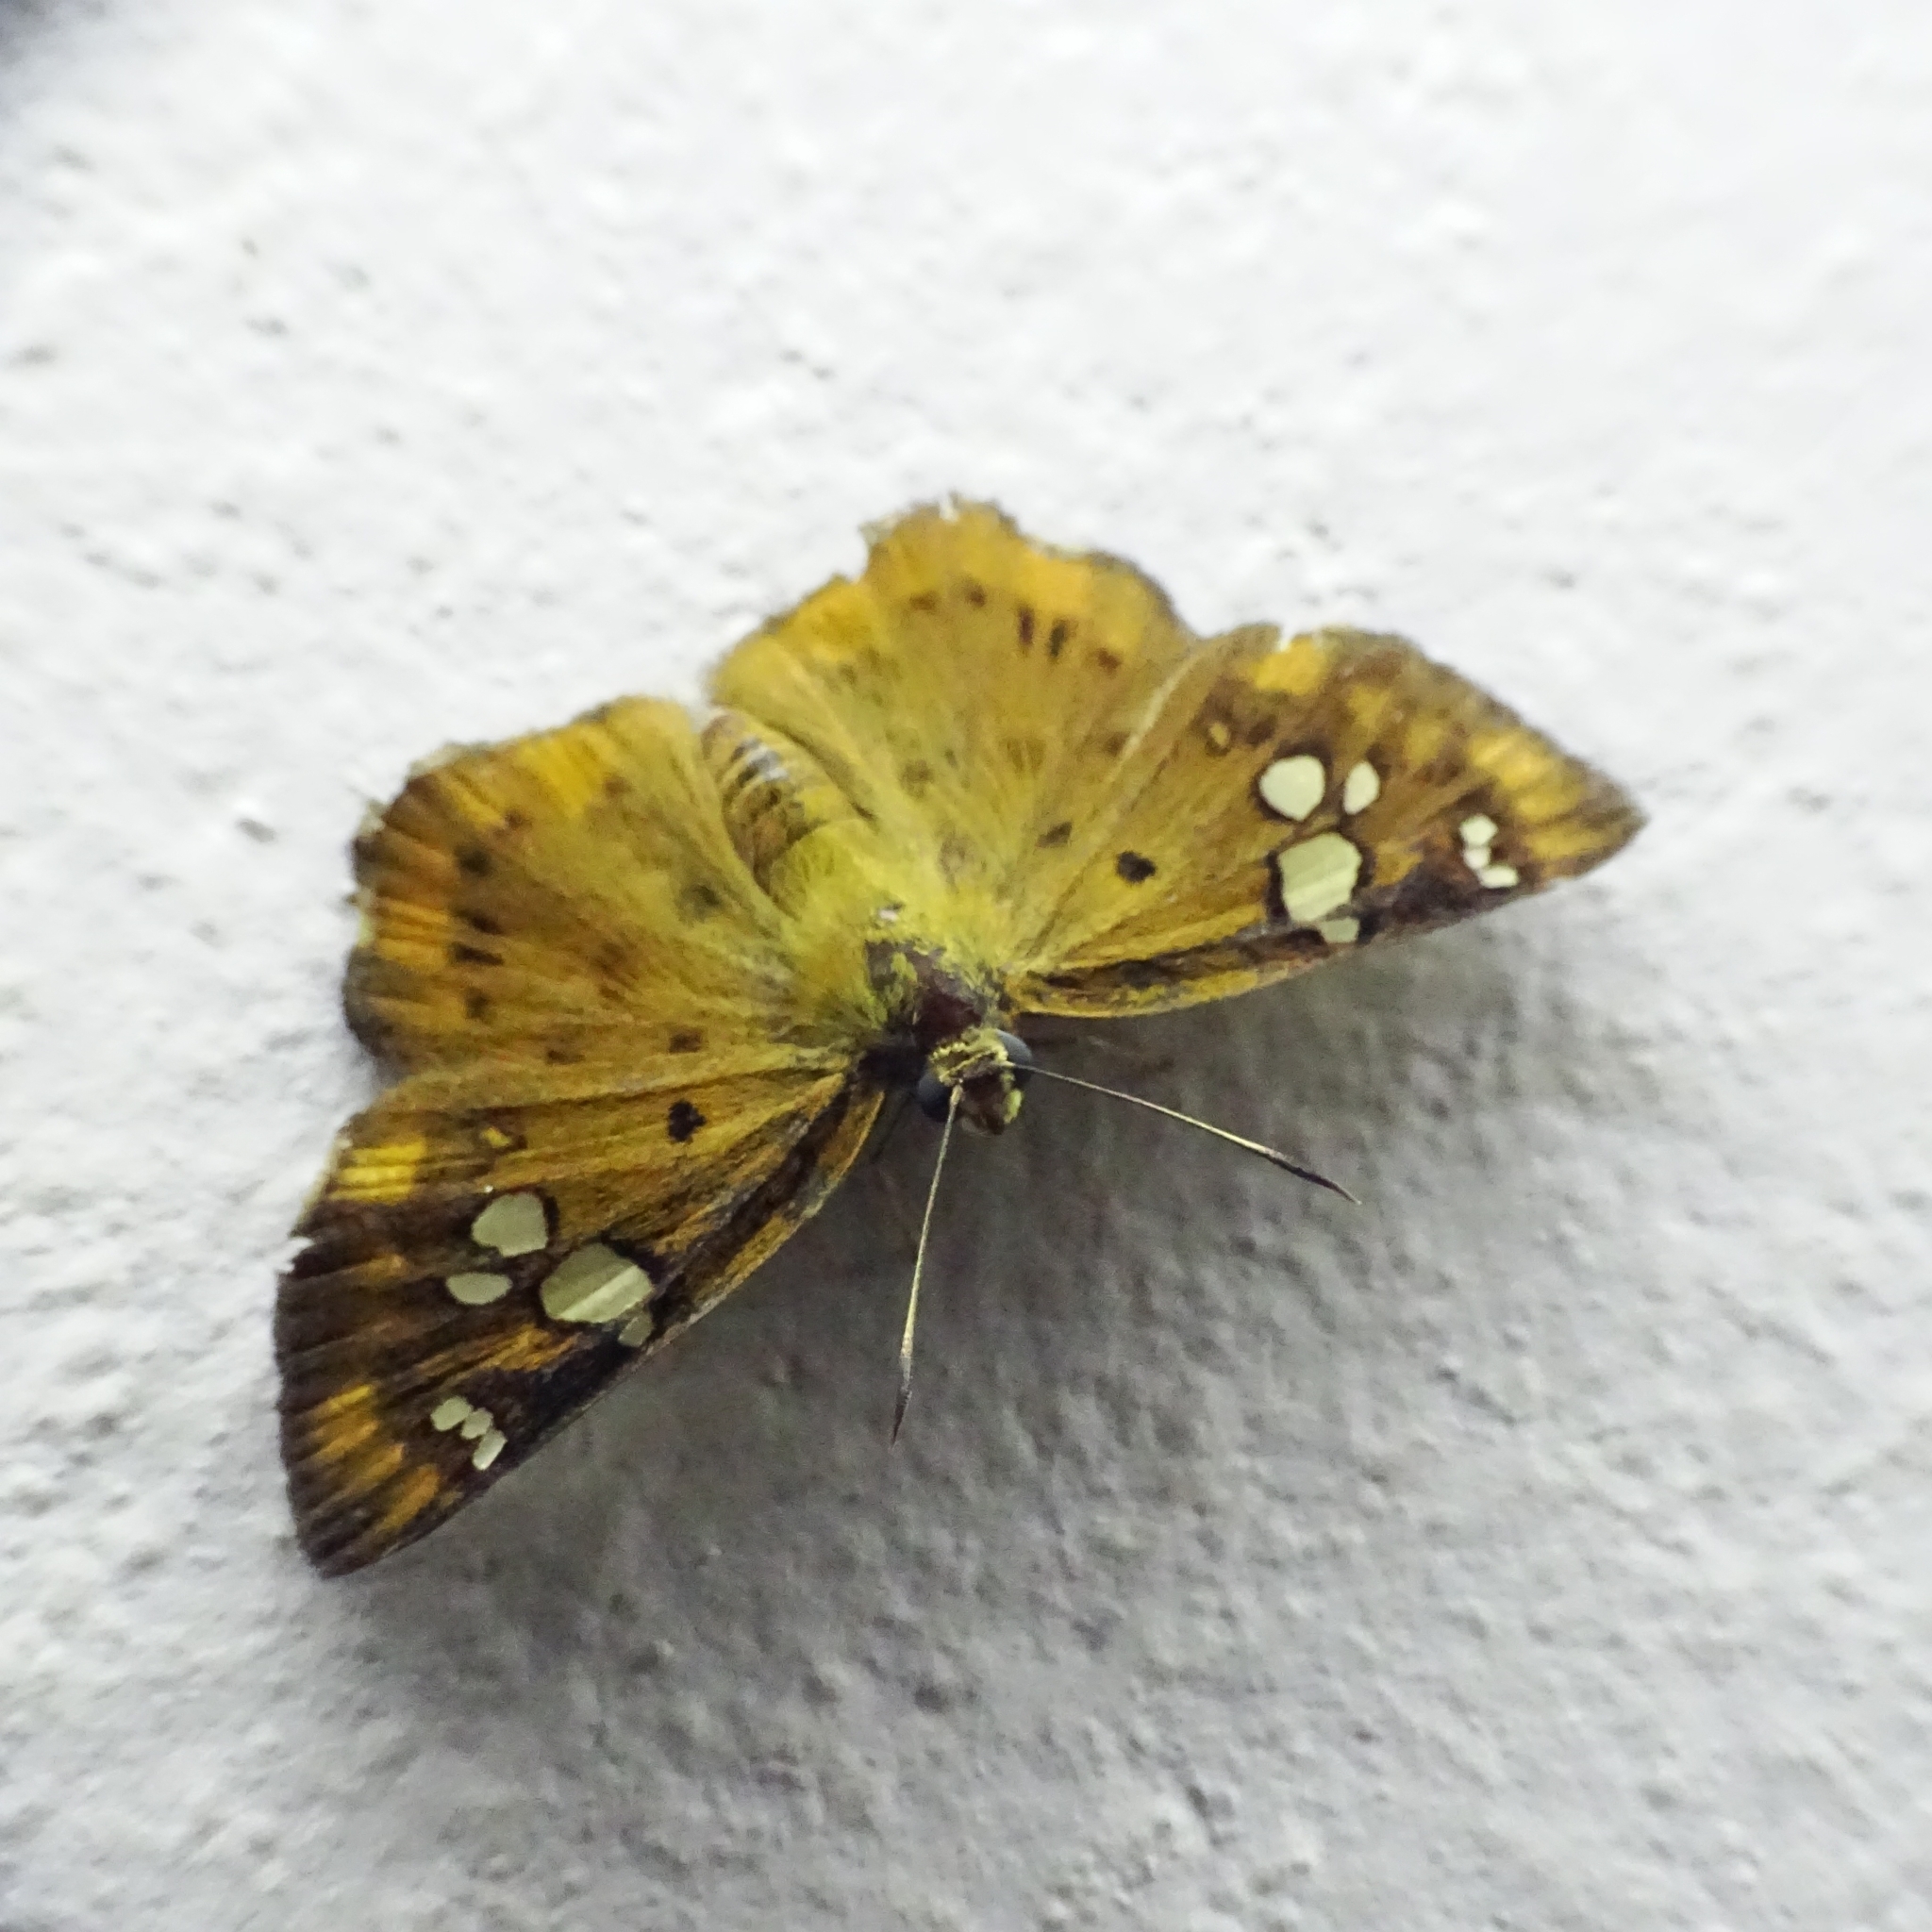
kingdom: Animalia
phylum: Arthropoda
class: Insecta
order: Lepidoptera
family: Hesperiidae
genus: Coladenia
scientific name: Coladenia
